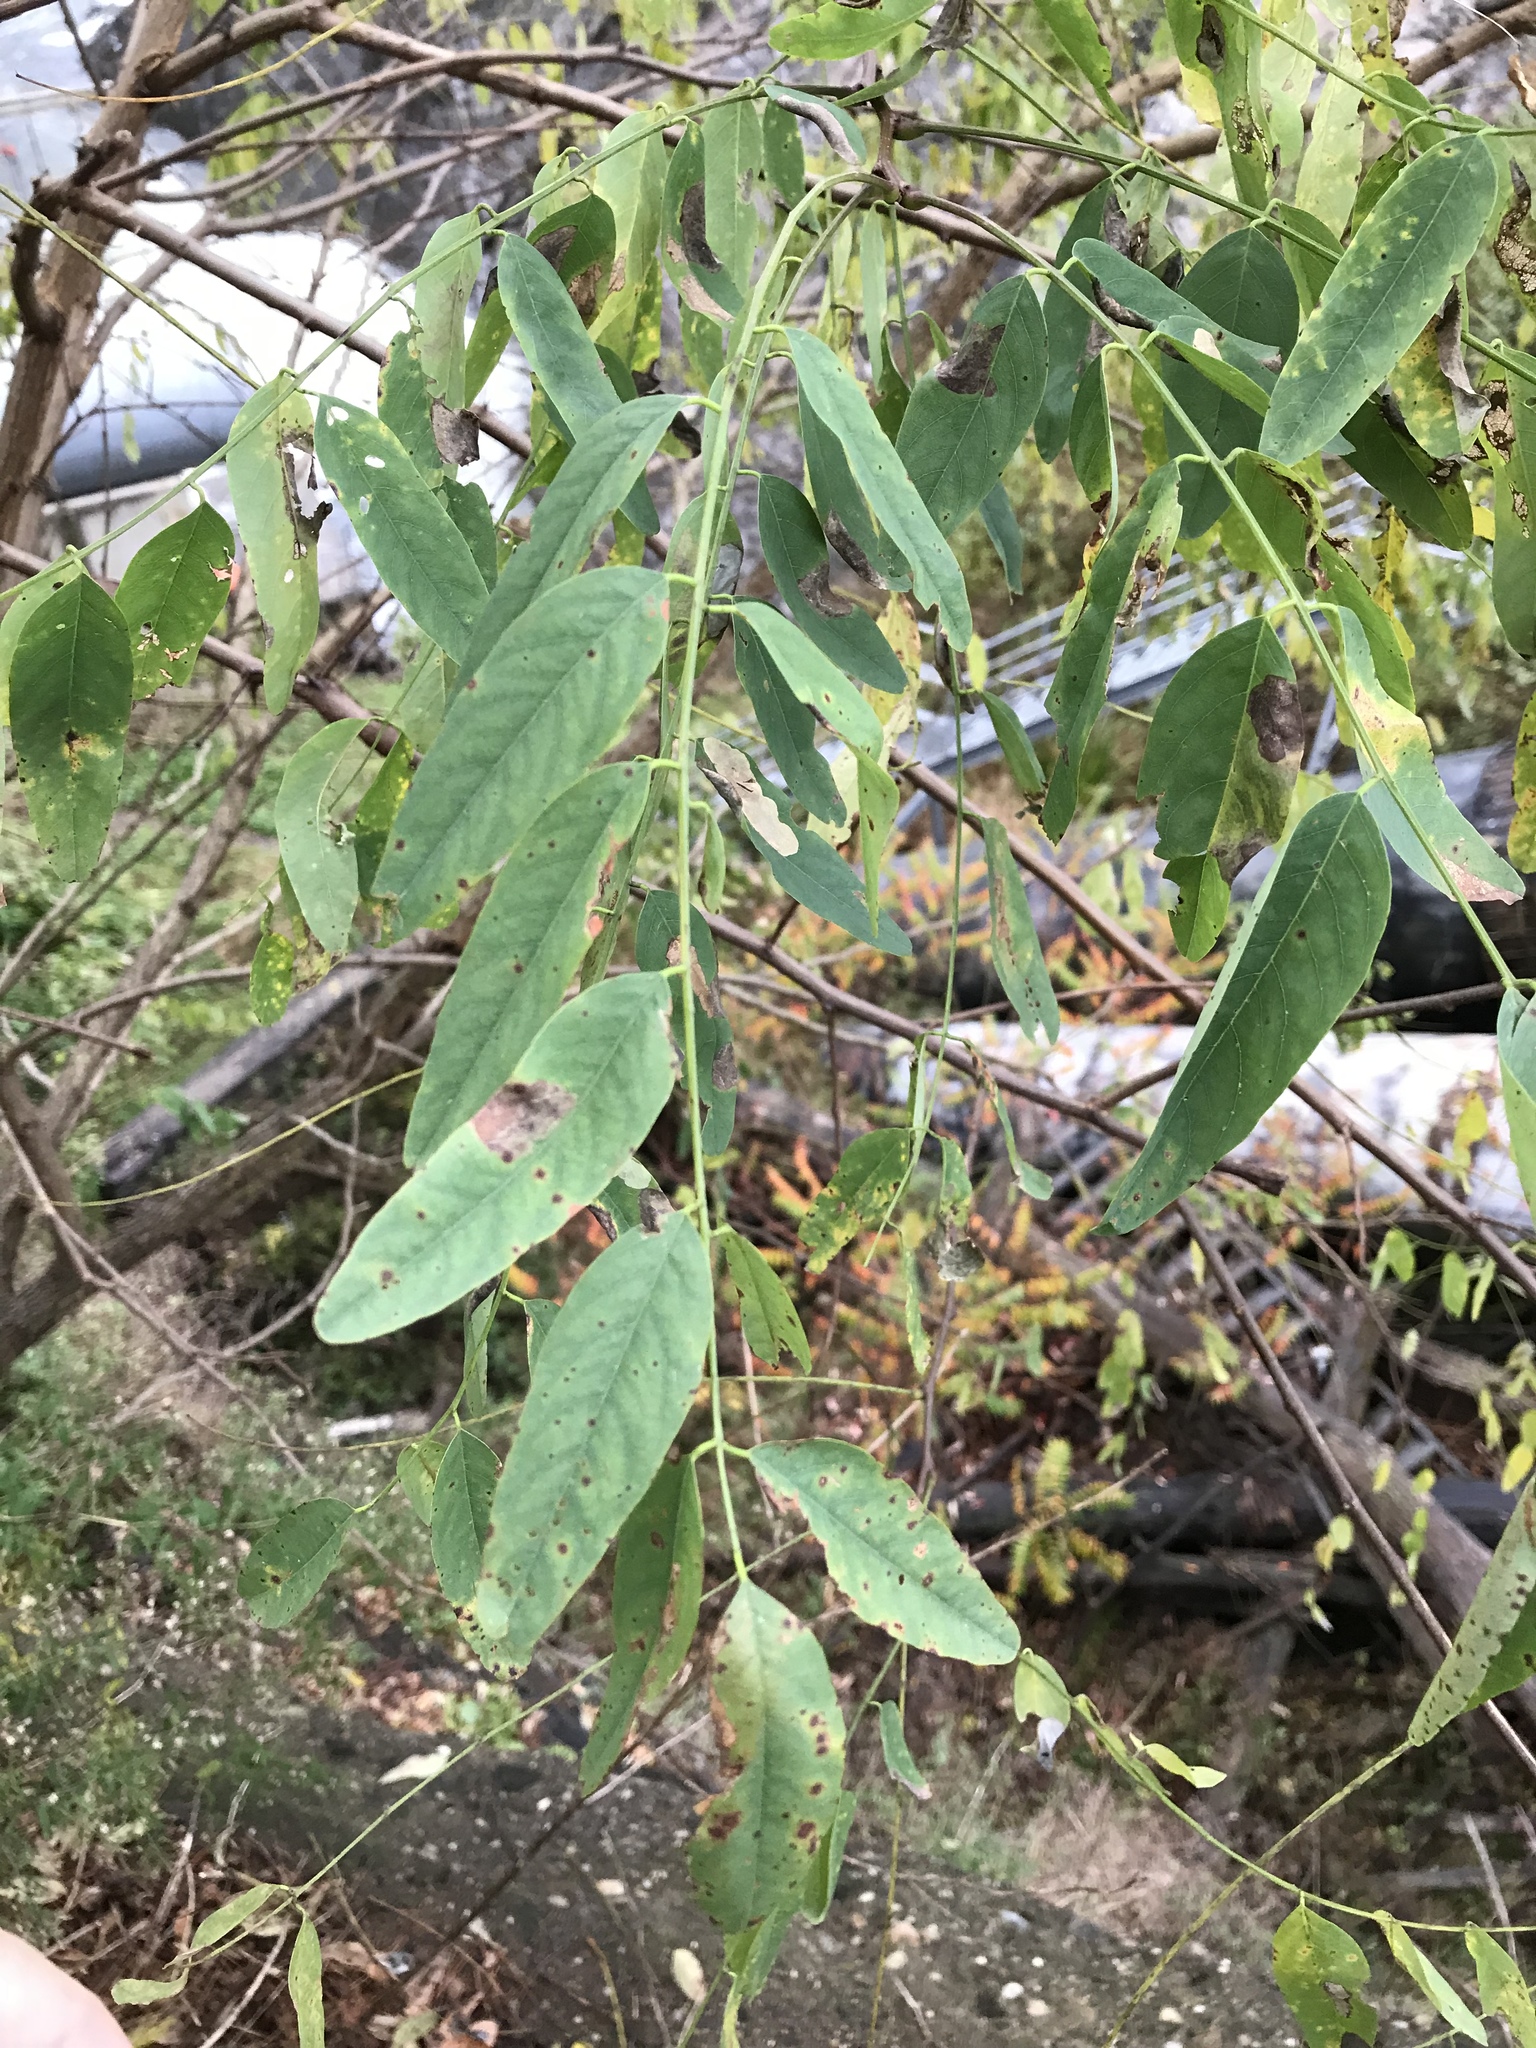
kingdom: Plantae
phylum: Tracheophyta
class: Magnoliopsida
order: Fabales
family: Fabaceae
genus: Robinia
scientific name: Robinia pseudoacacia
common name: Black locust
